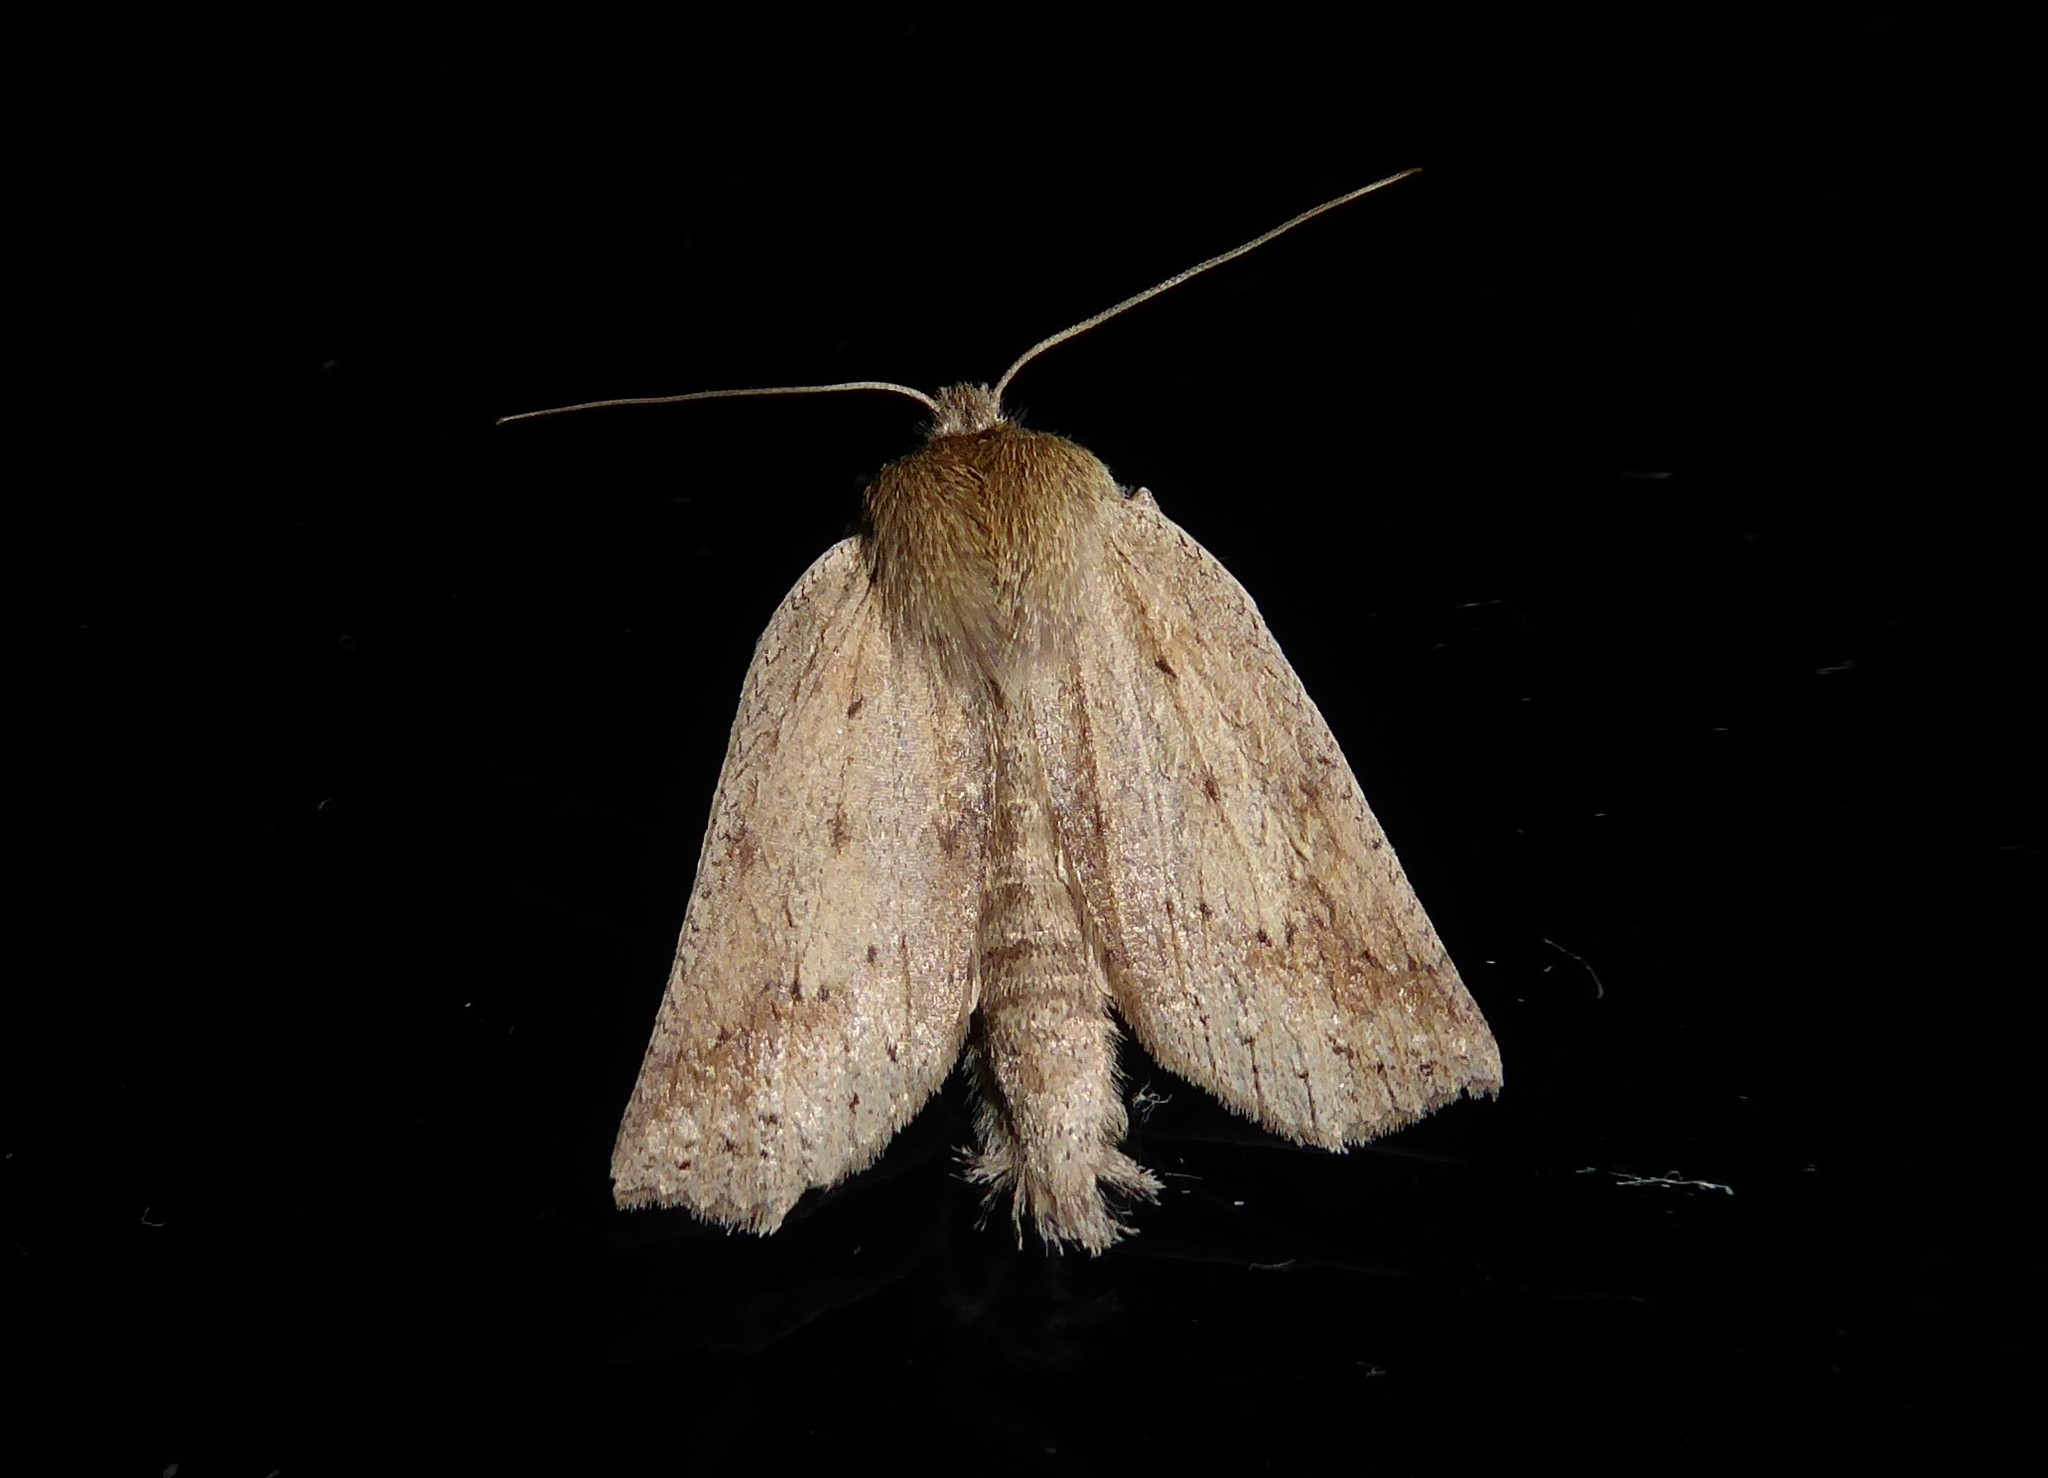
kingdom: Animalia
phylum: Arthropoda
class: Insecta
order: Lepidoptera
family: Geometridae
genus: Declana
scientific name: Declana leptomera
